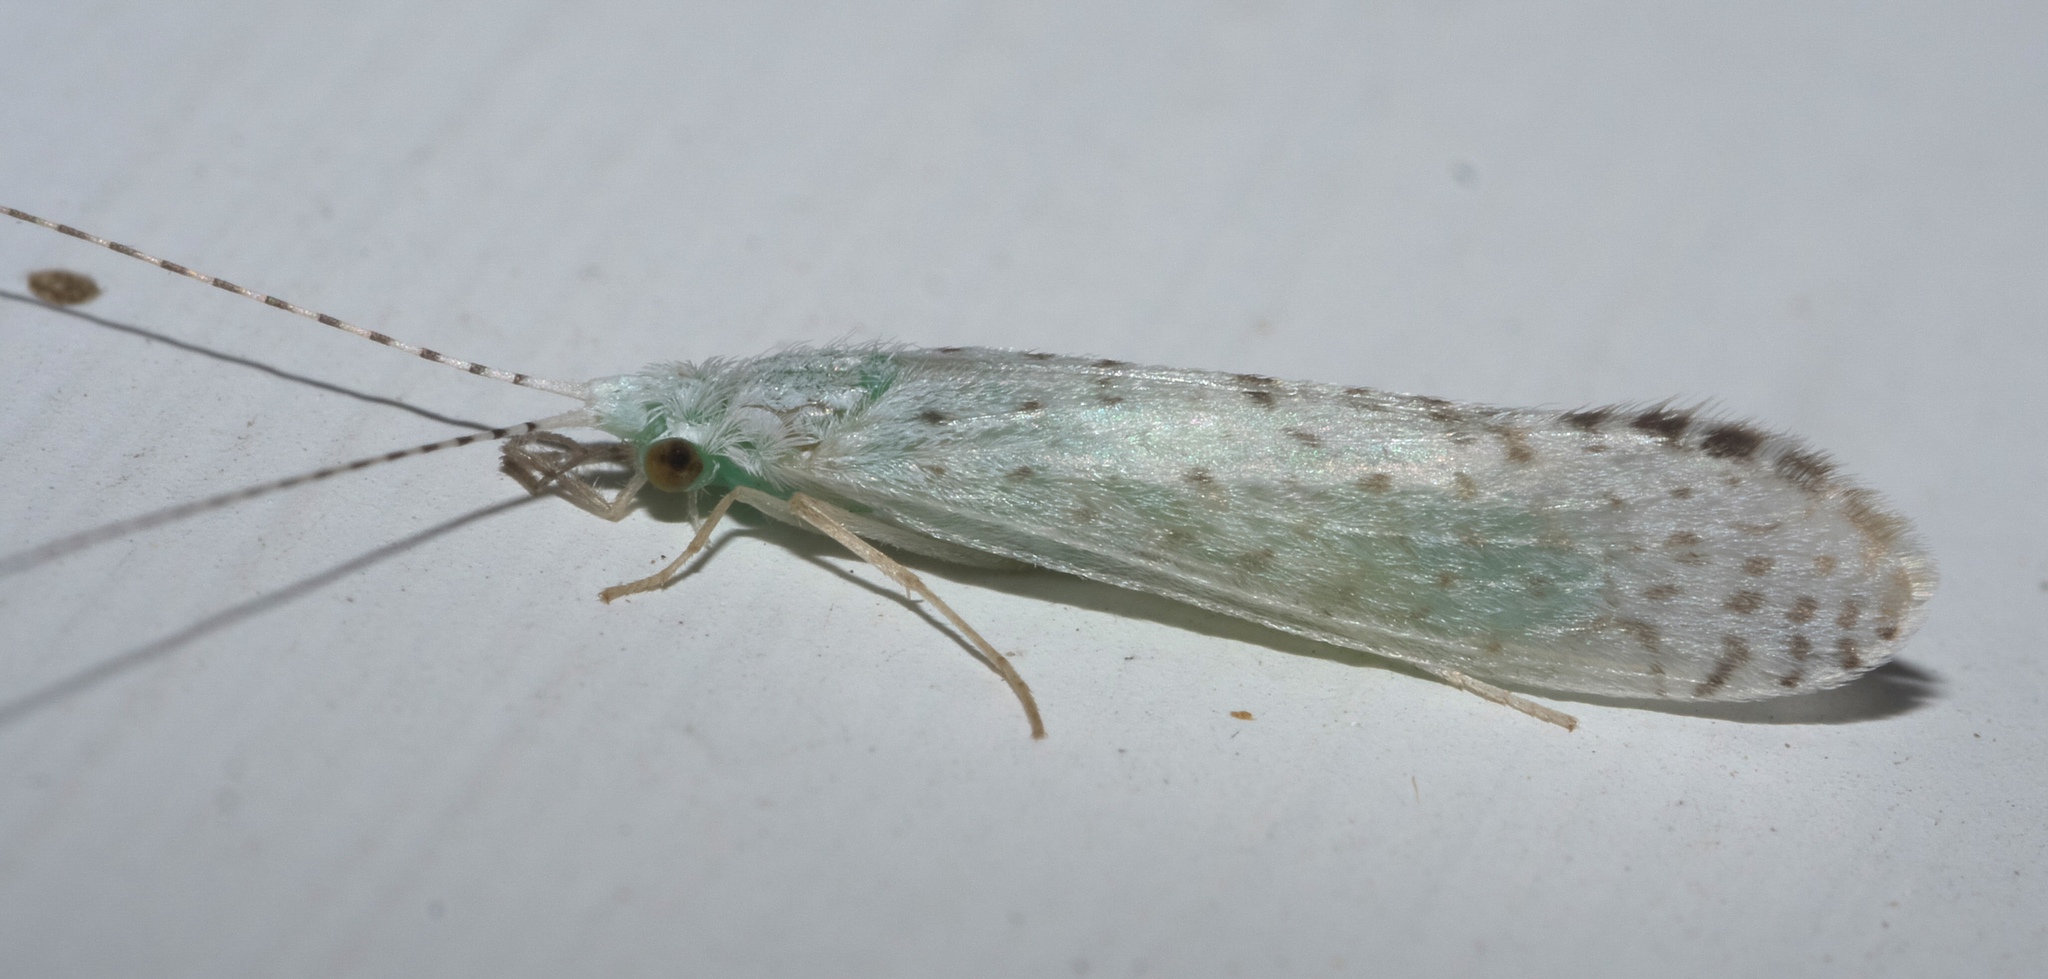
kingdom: Animalia
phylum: Arthropoda
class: Insecta
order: Trichoptera
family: Leptoceridae
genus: Nectopsyche
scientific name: Nectopsyche candida
